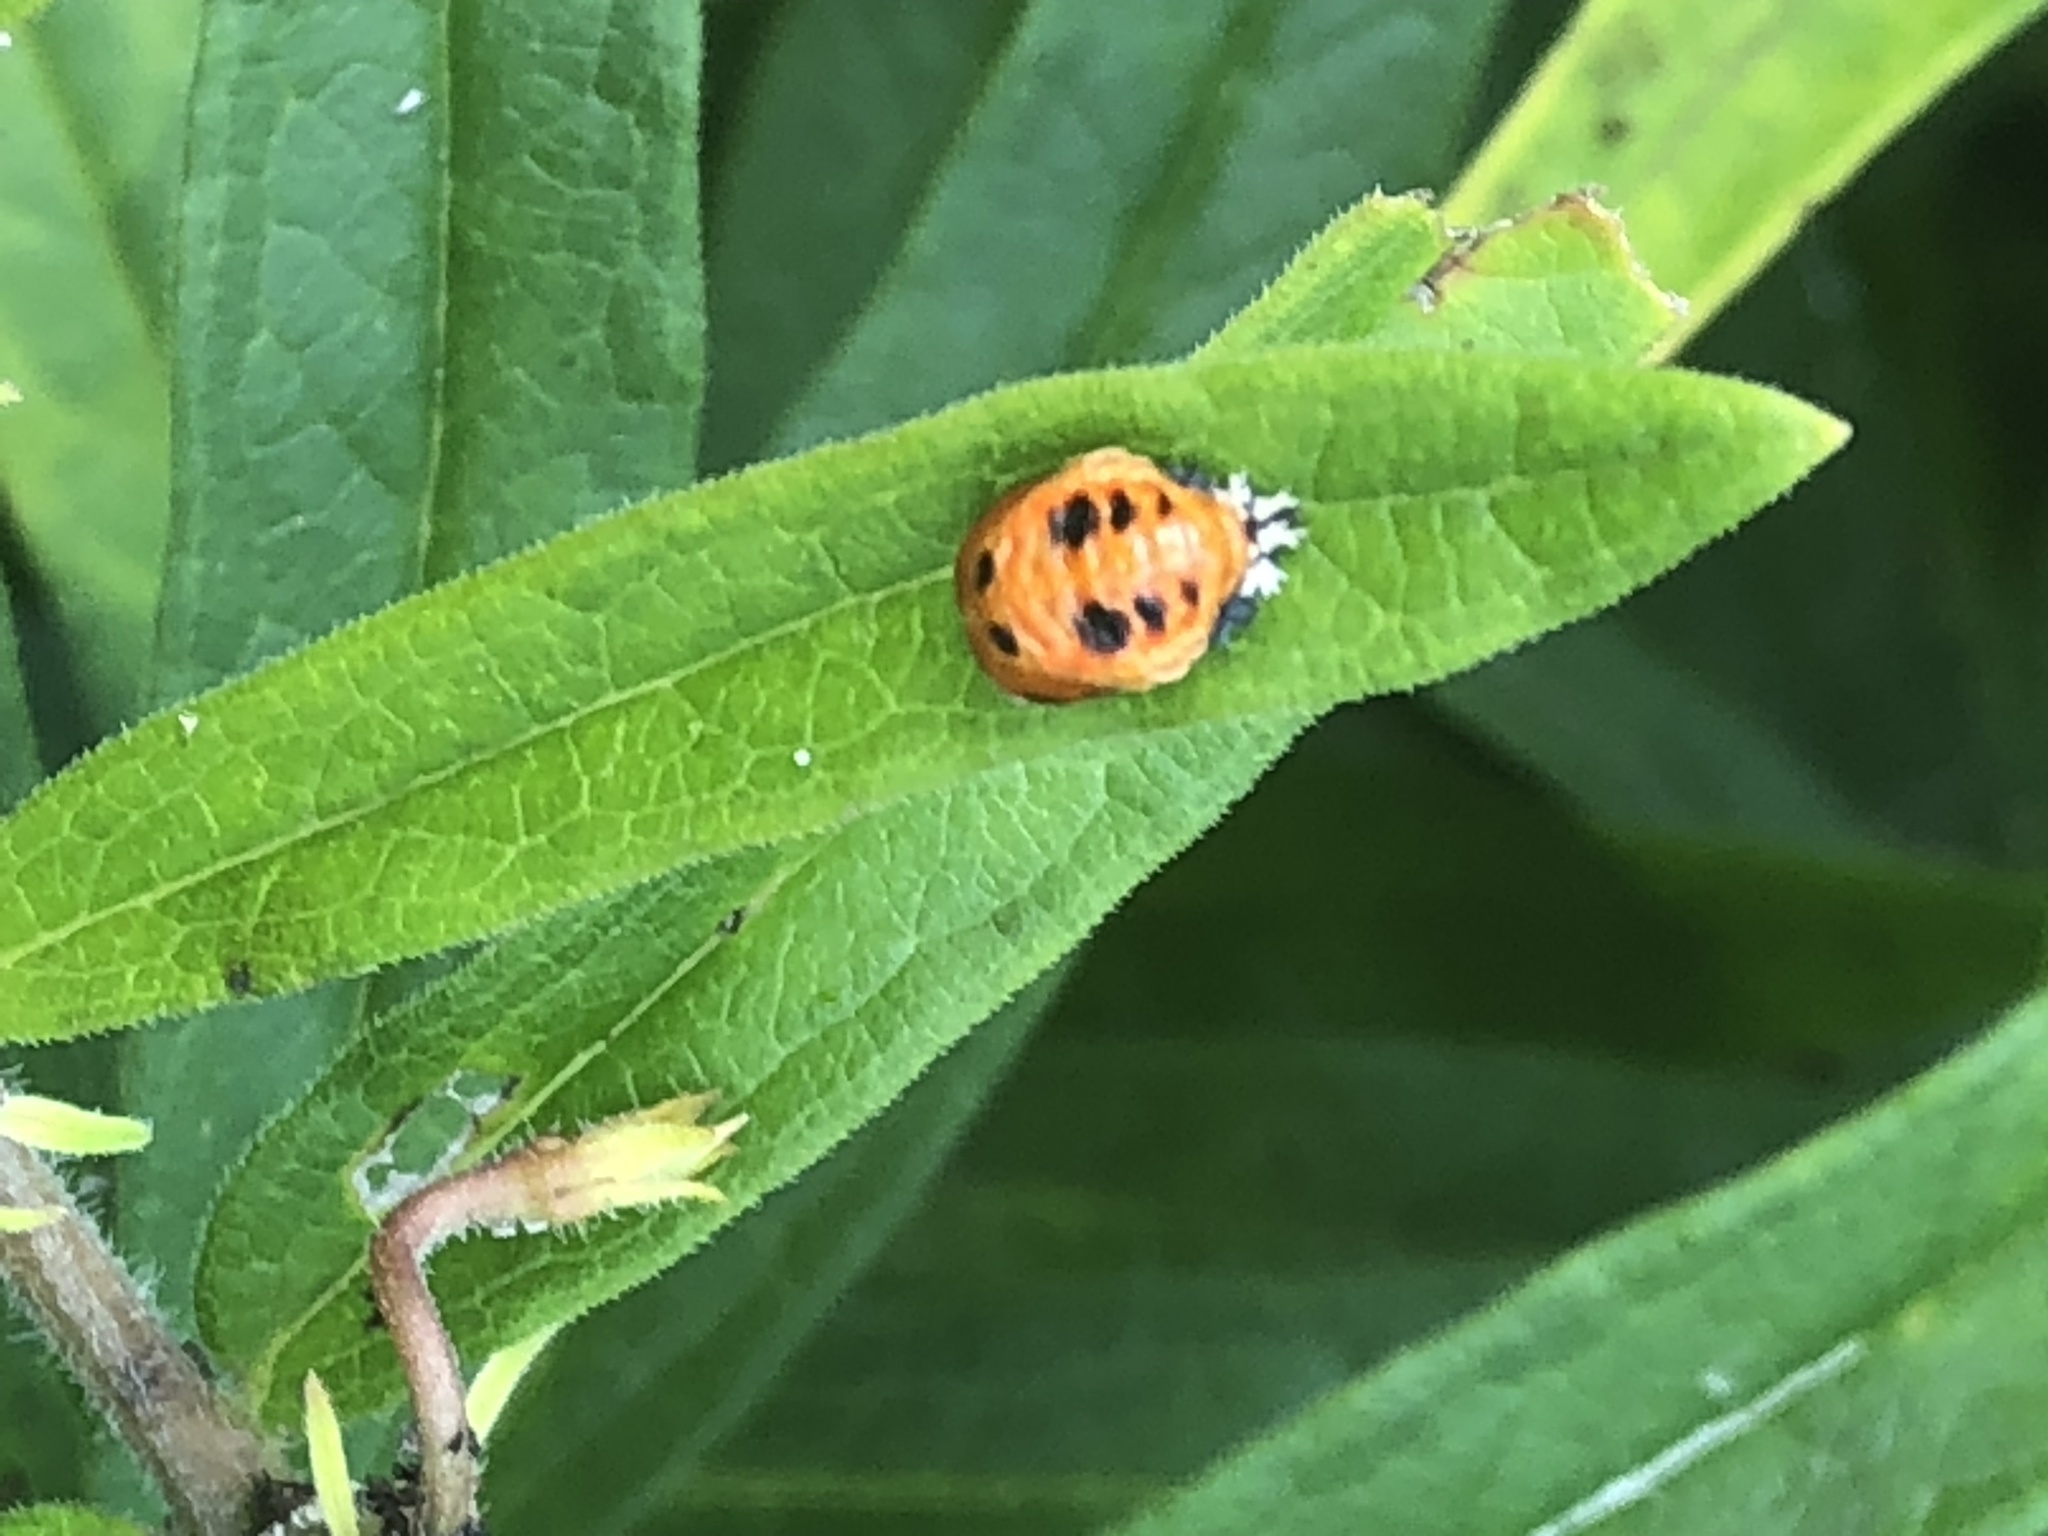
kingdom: Animalia
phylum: Arthropoda
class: Insecta
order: Coleoptera
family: Coccinellidae
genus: Harmonia
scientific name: Harmonia axyridis
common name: Harlequin ladybird
